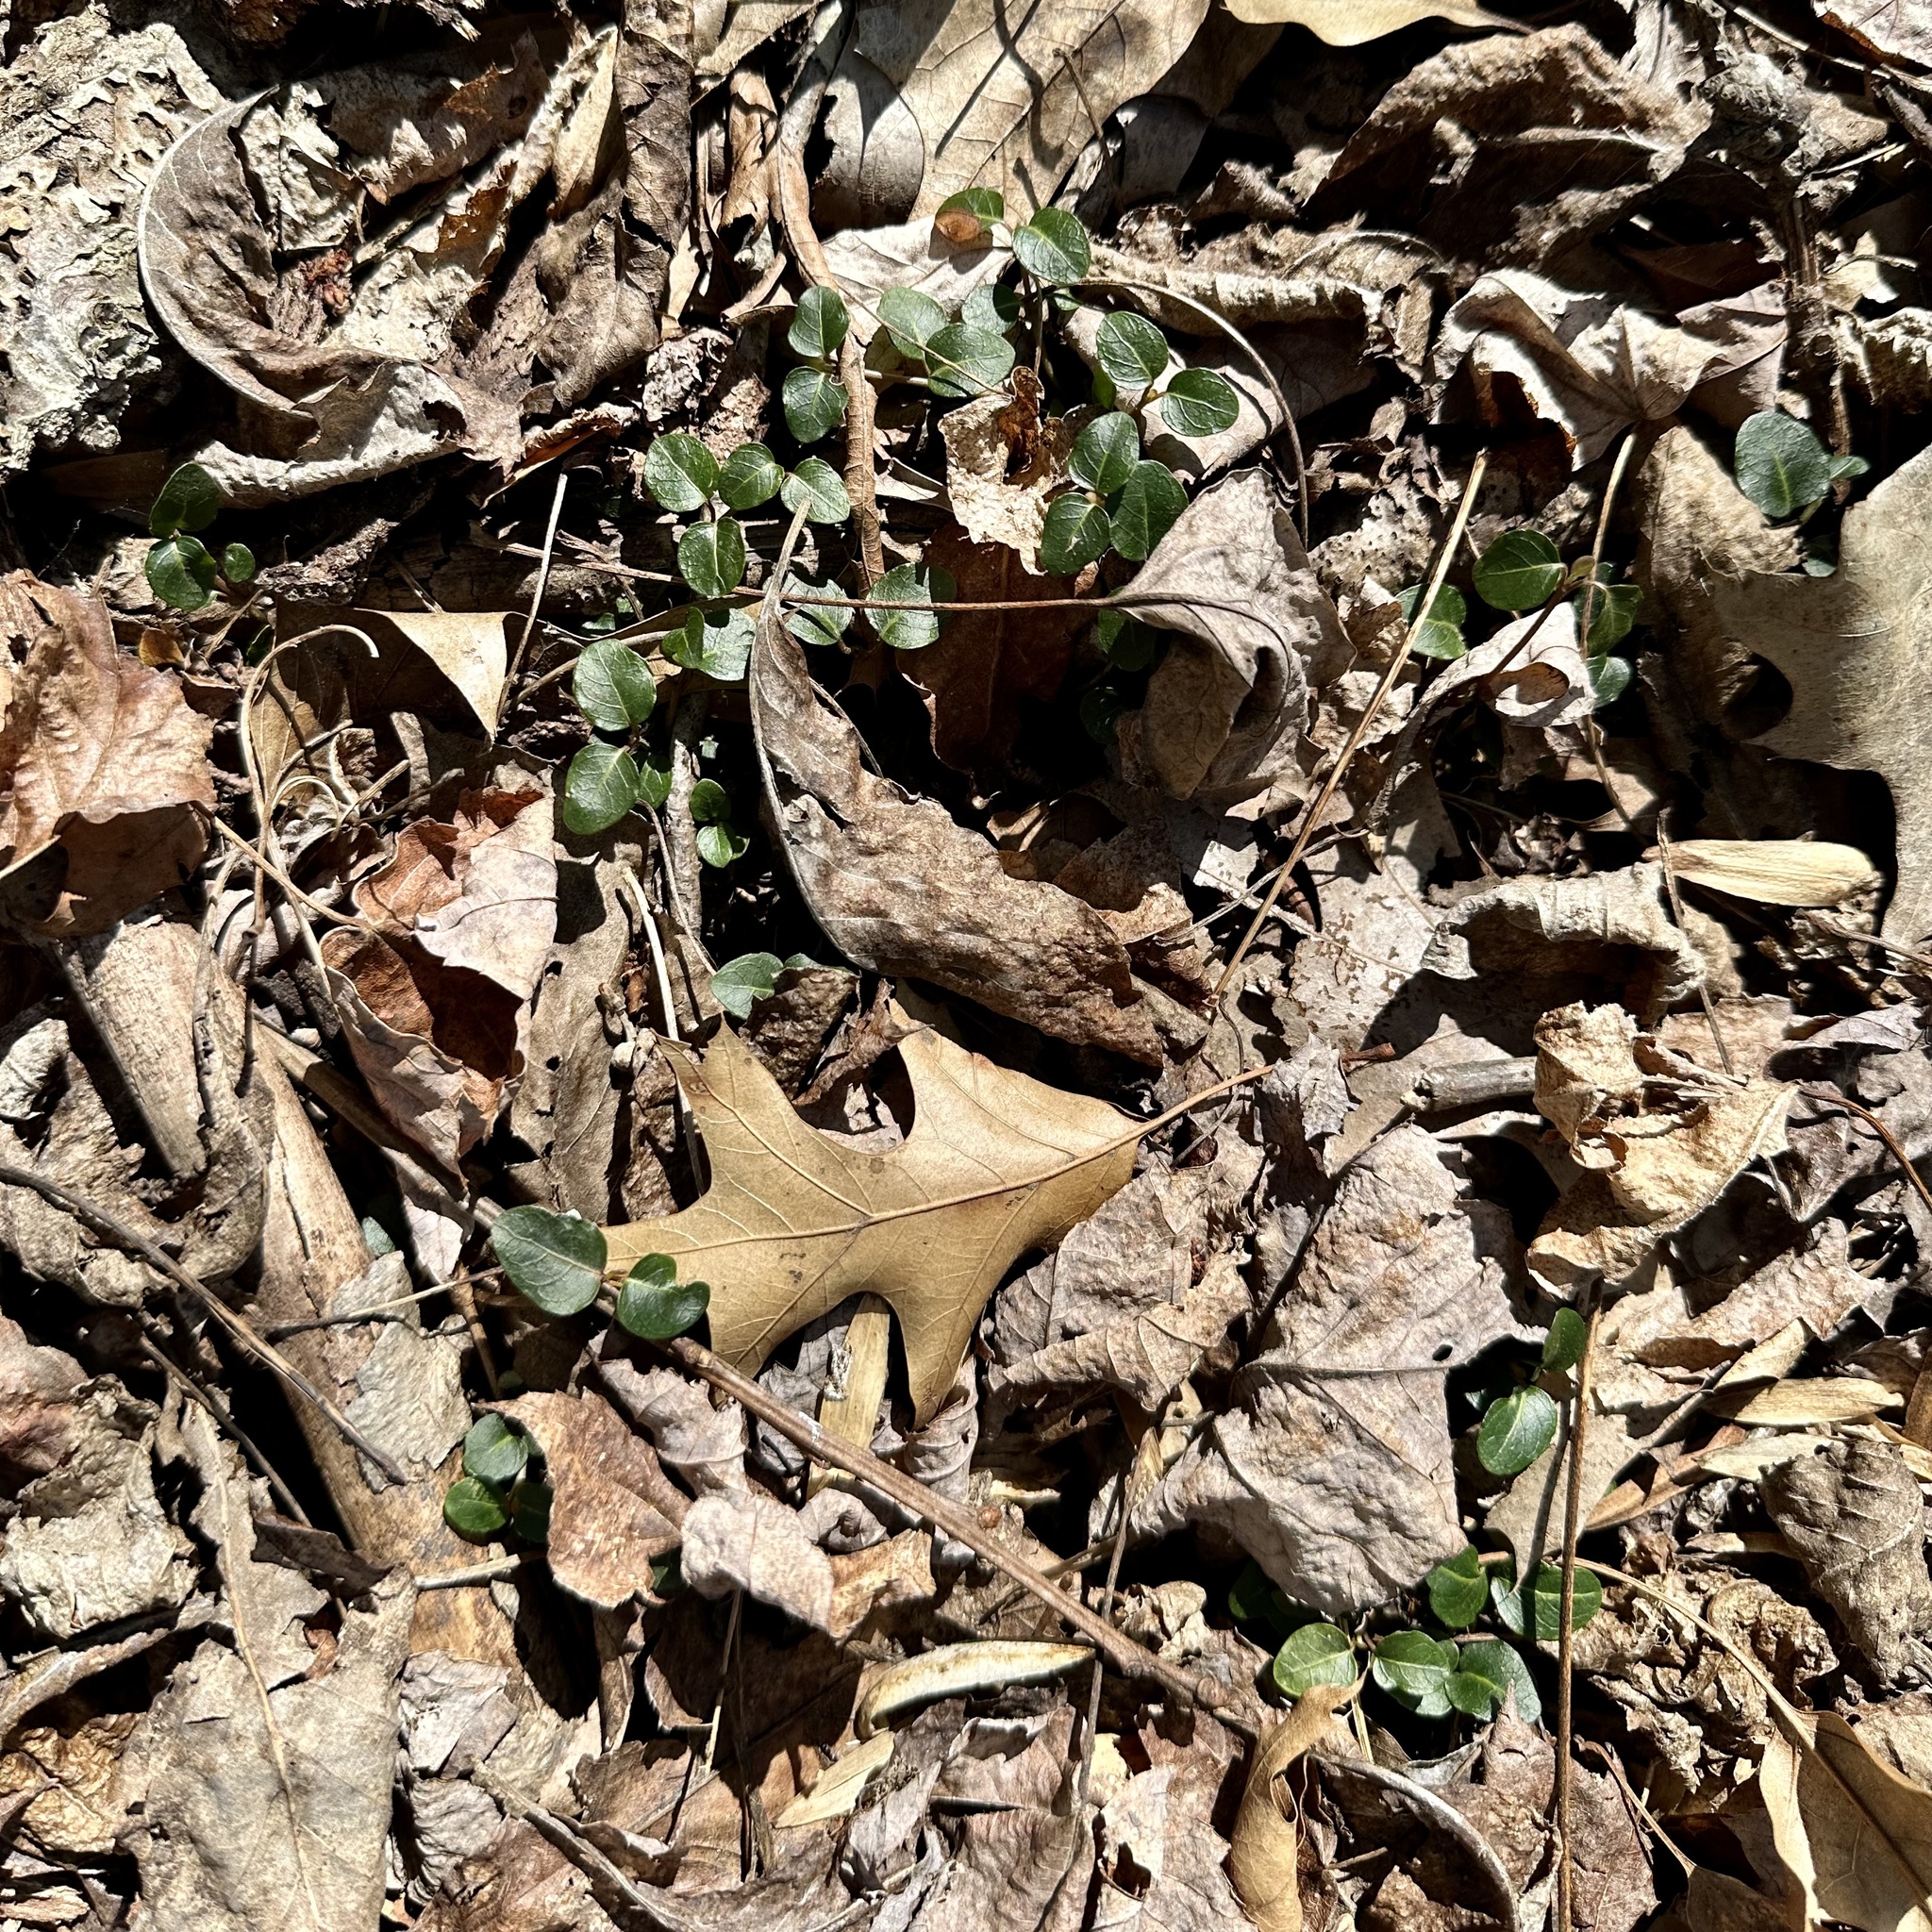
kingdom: Plantae
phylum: Tracheophyta
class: Magnoliopsida
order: Gentianales
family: Rubiaceae
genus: Mitchella
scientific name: Mitchella repens
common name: Partridge-berry
